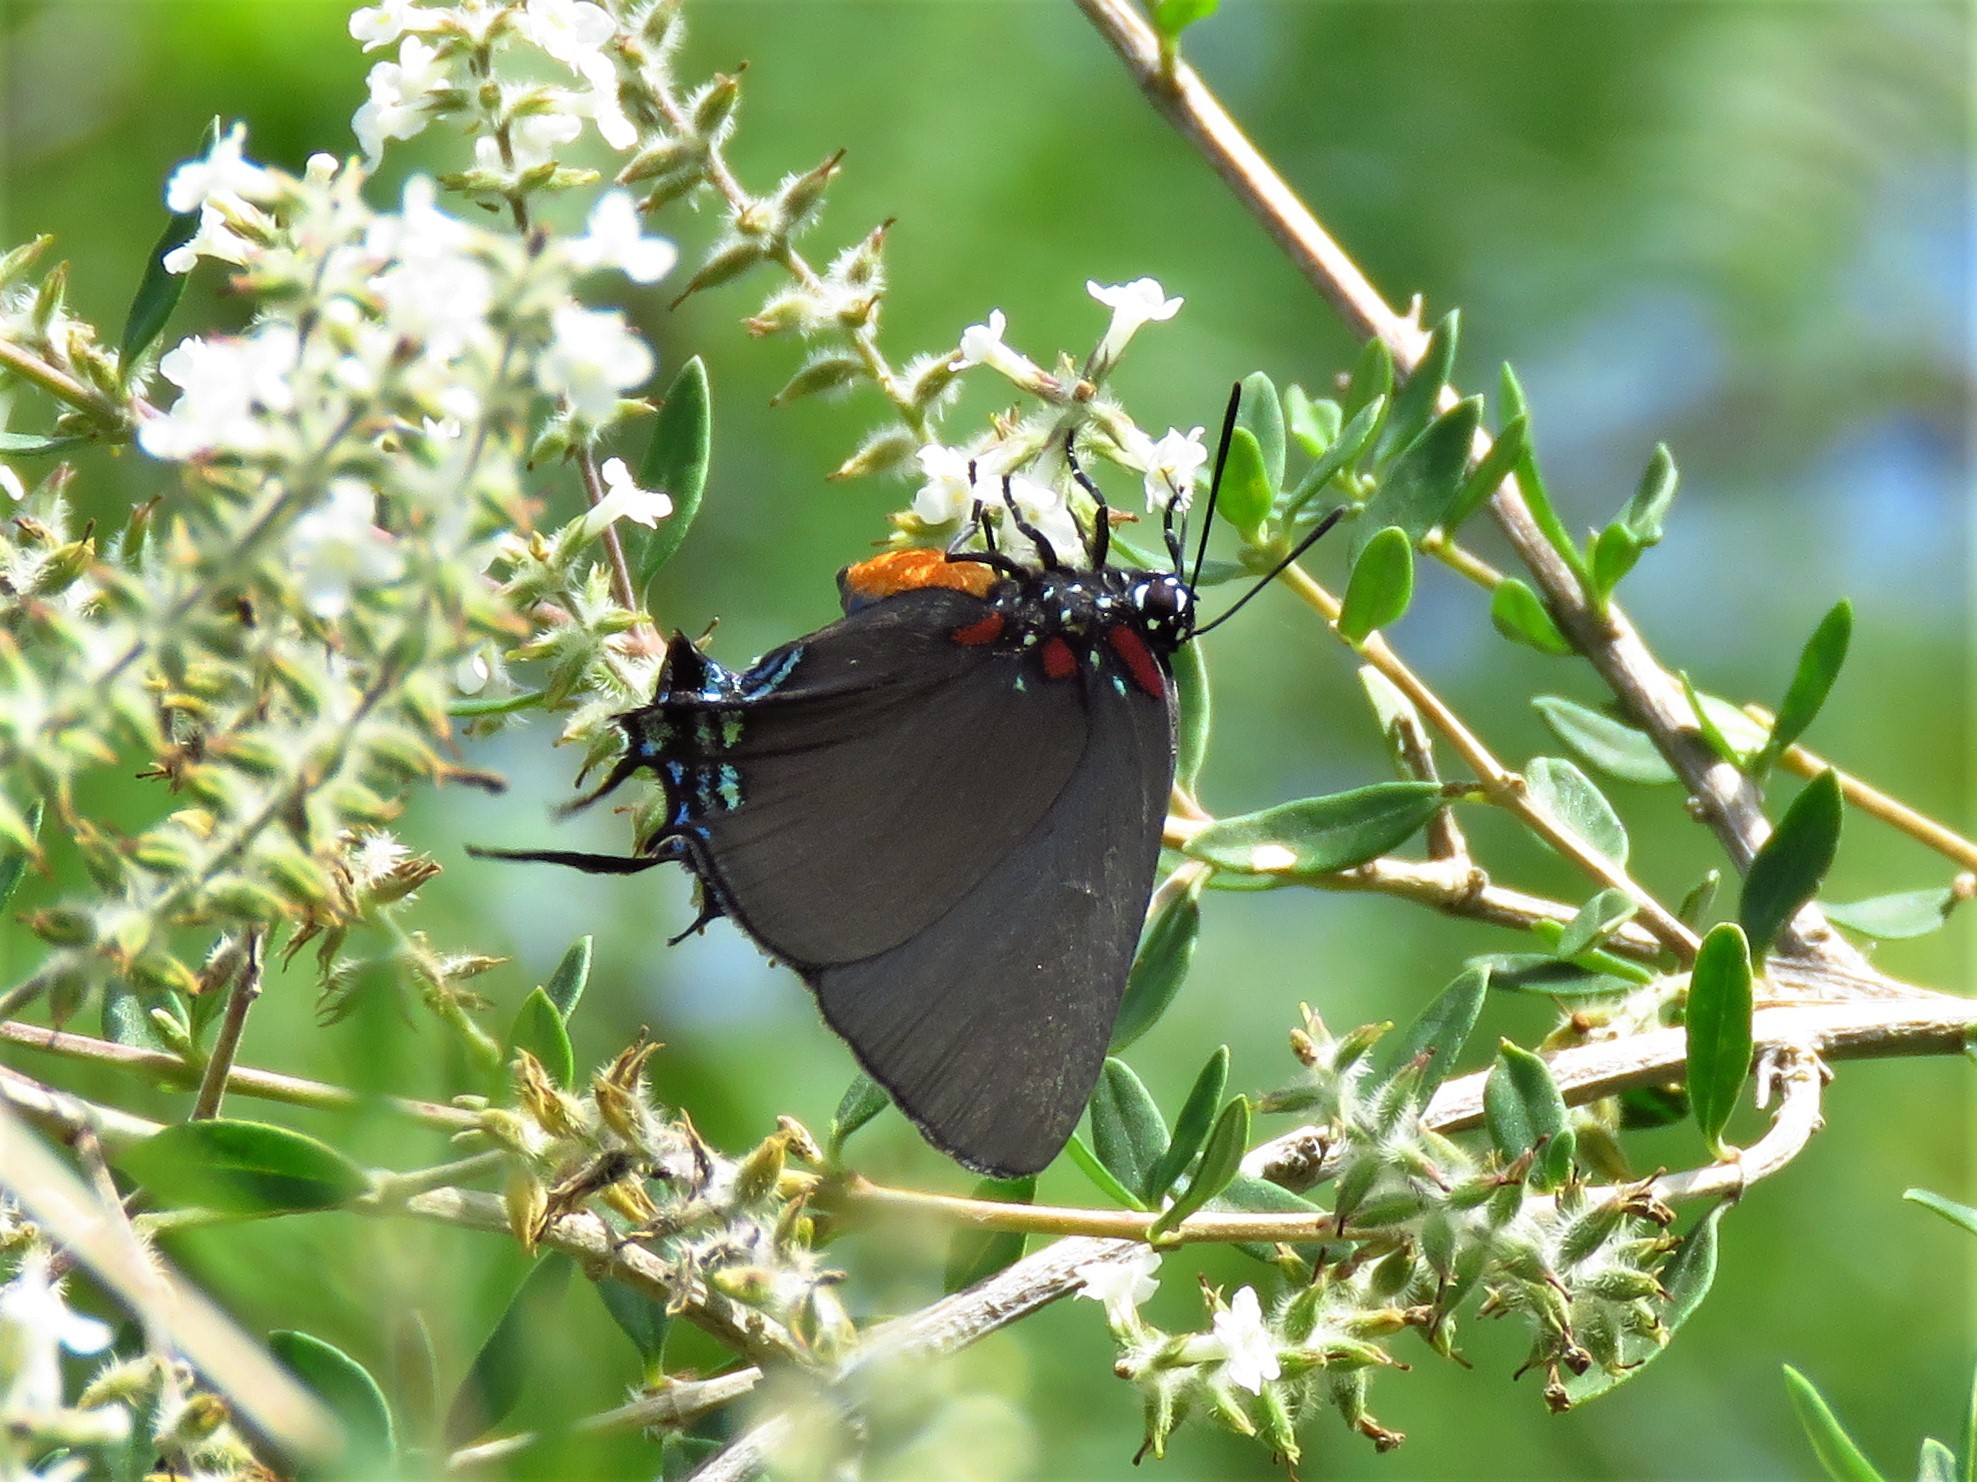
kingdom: Animalia
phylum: Arthropoda
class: Insecta
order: Lepidoptera
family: Lycaenidae
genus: Atlides
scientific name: Atlides halesus
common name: Great purple hairstreak
